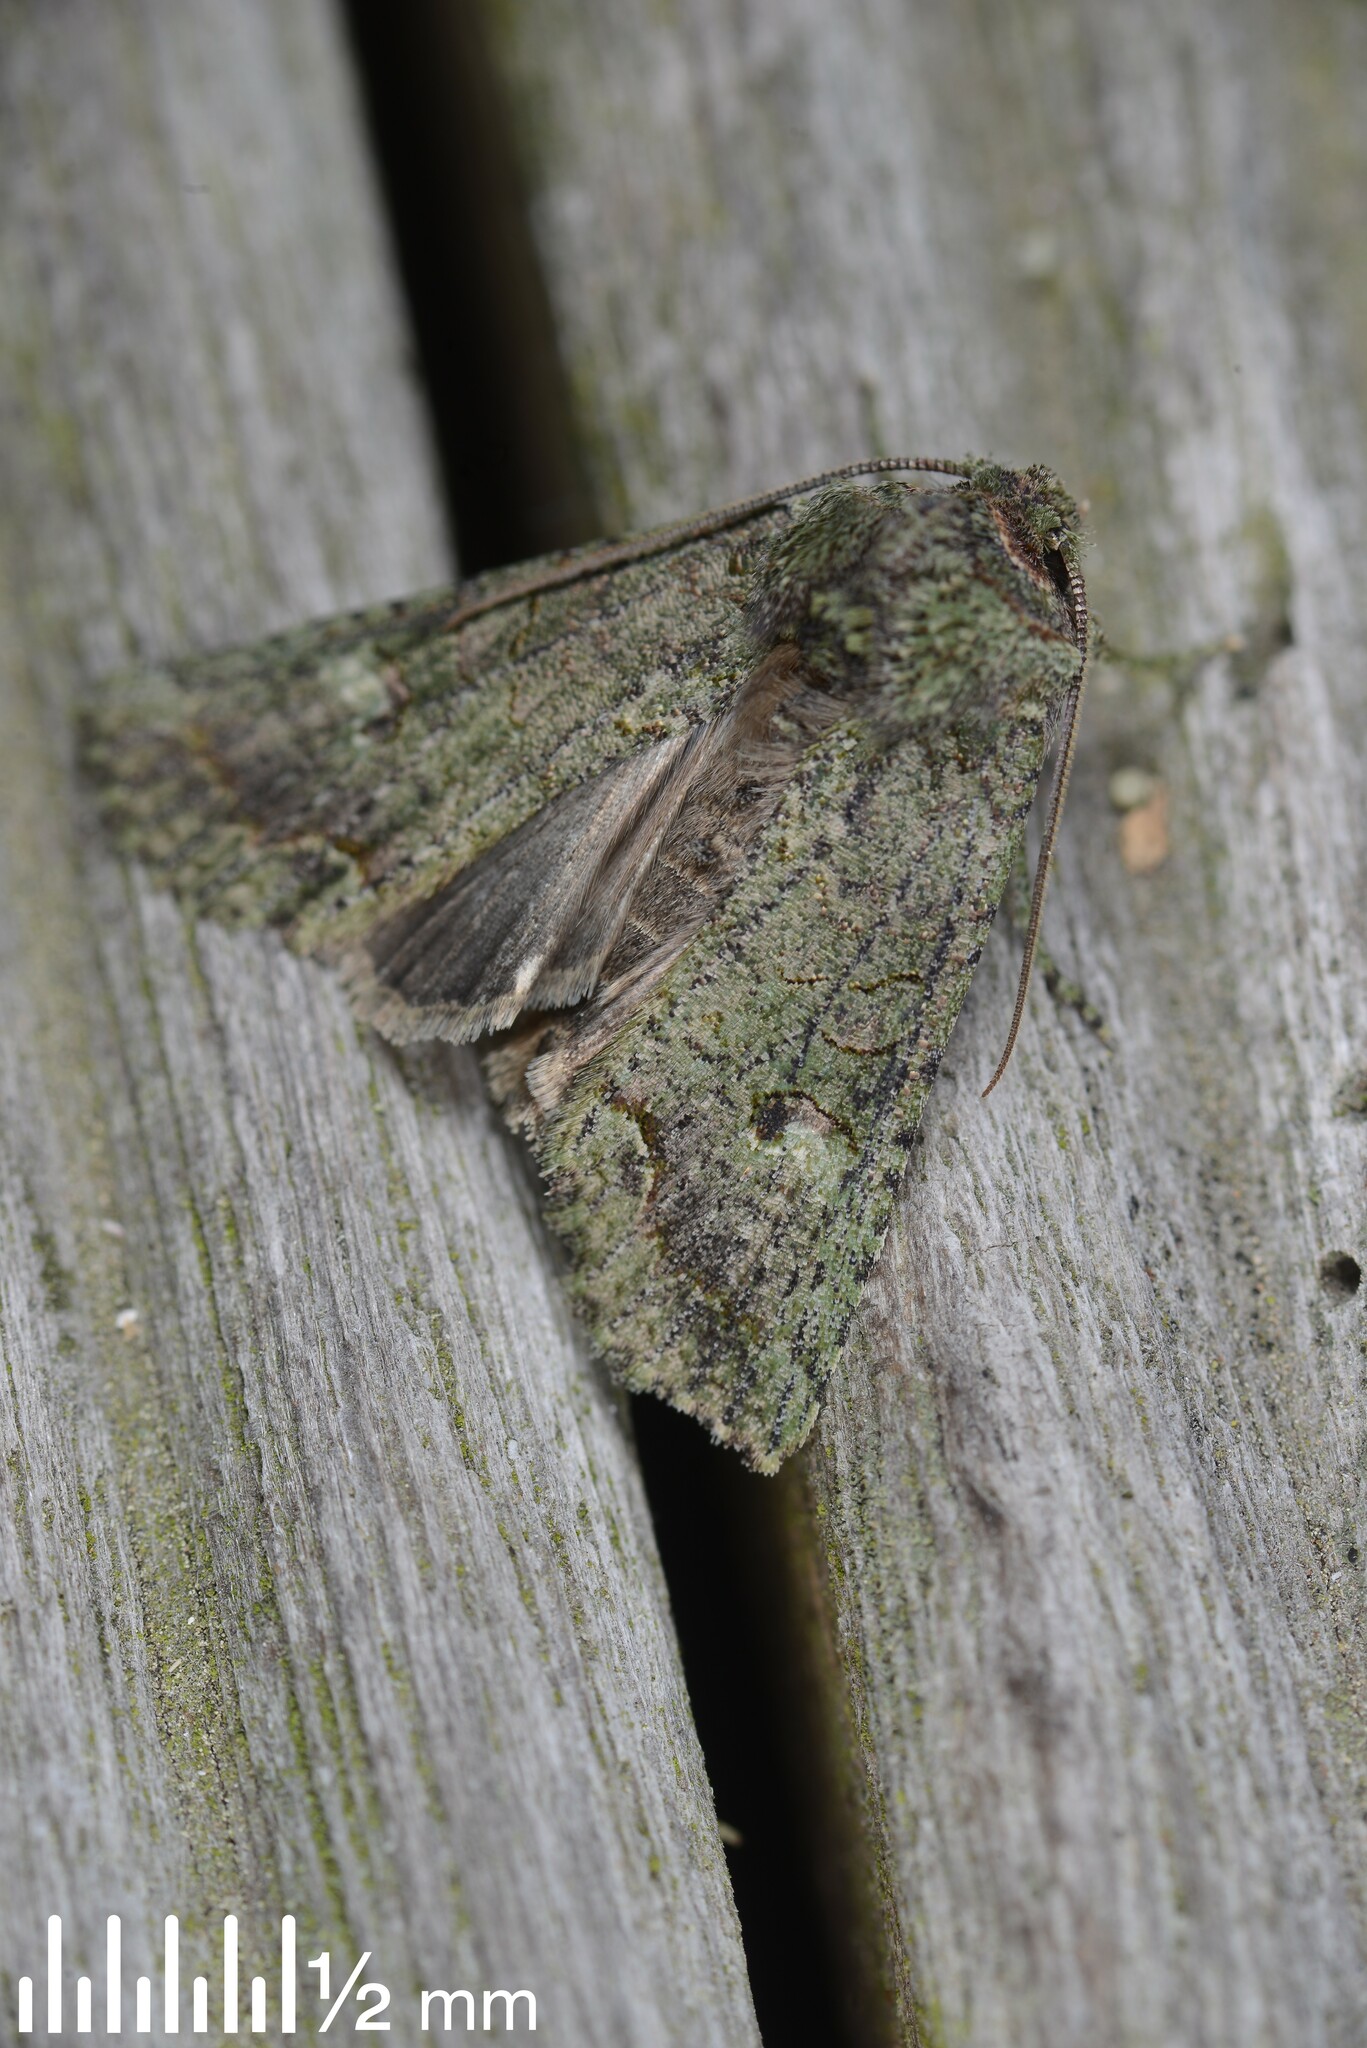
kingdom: Animalia
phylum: Arthropoda
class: Insecta
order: Lepidoptera
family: Noctuidae
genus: Meterana
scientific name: Meterana levis
